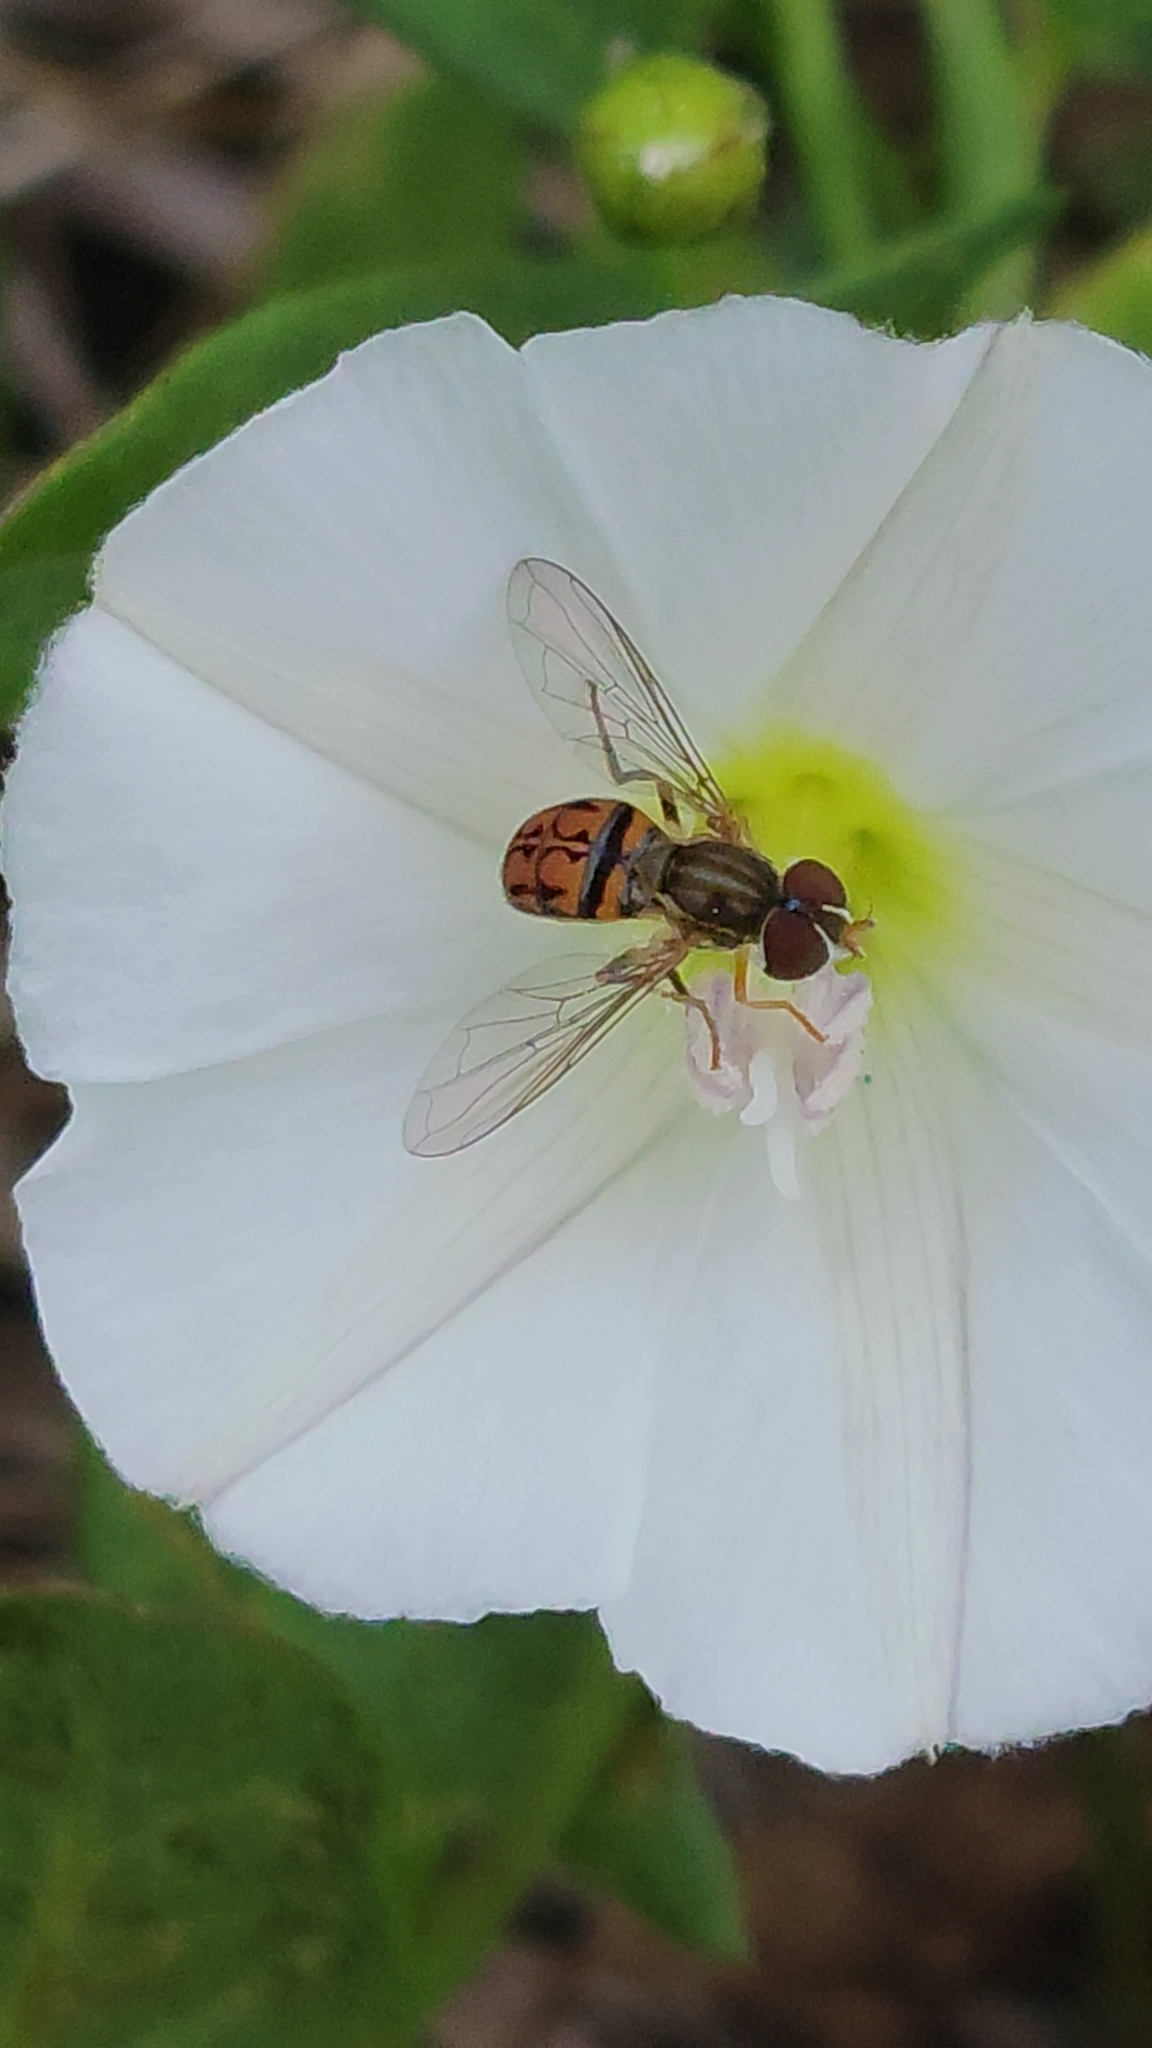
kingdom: Animalia
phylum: Arthropoda
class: Insecta
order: Diptera
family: Syrphidae
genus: Toxomerus
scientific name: Toxomerus boscii
